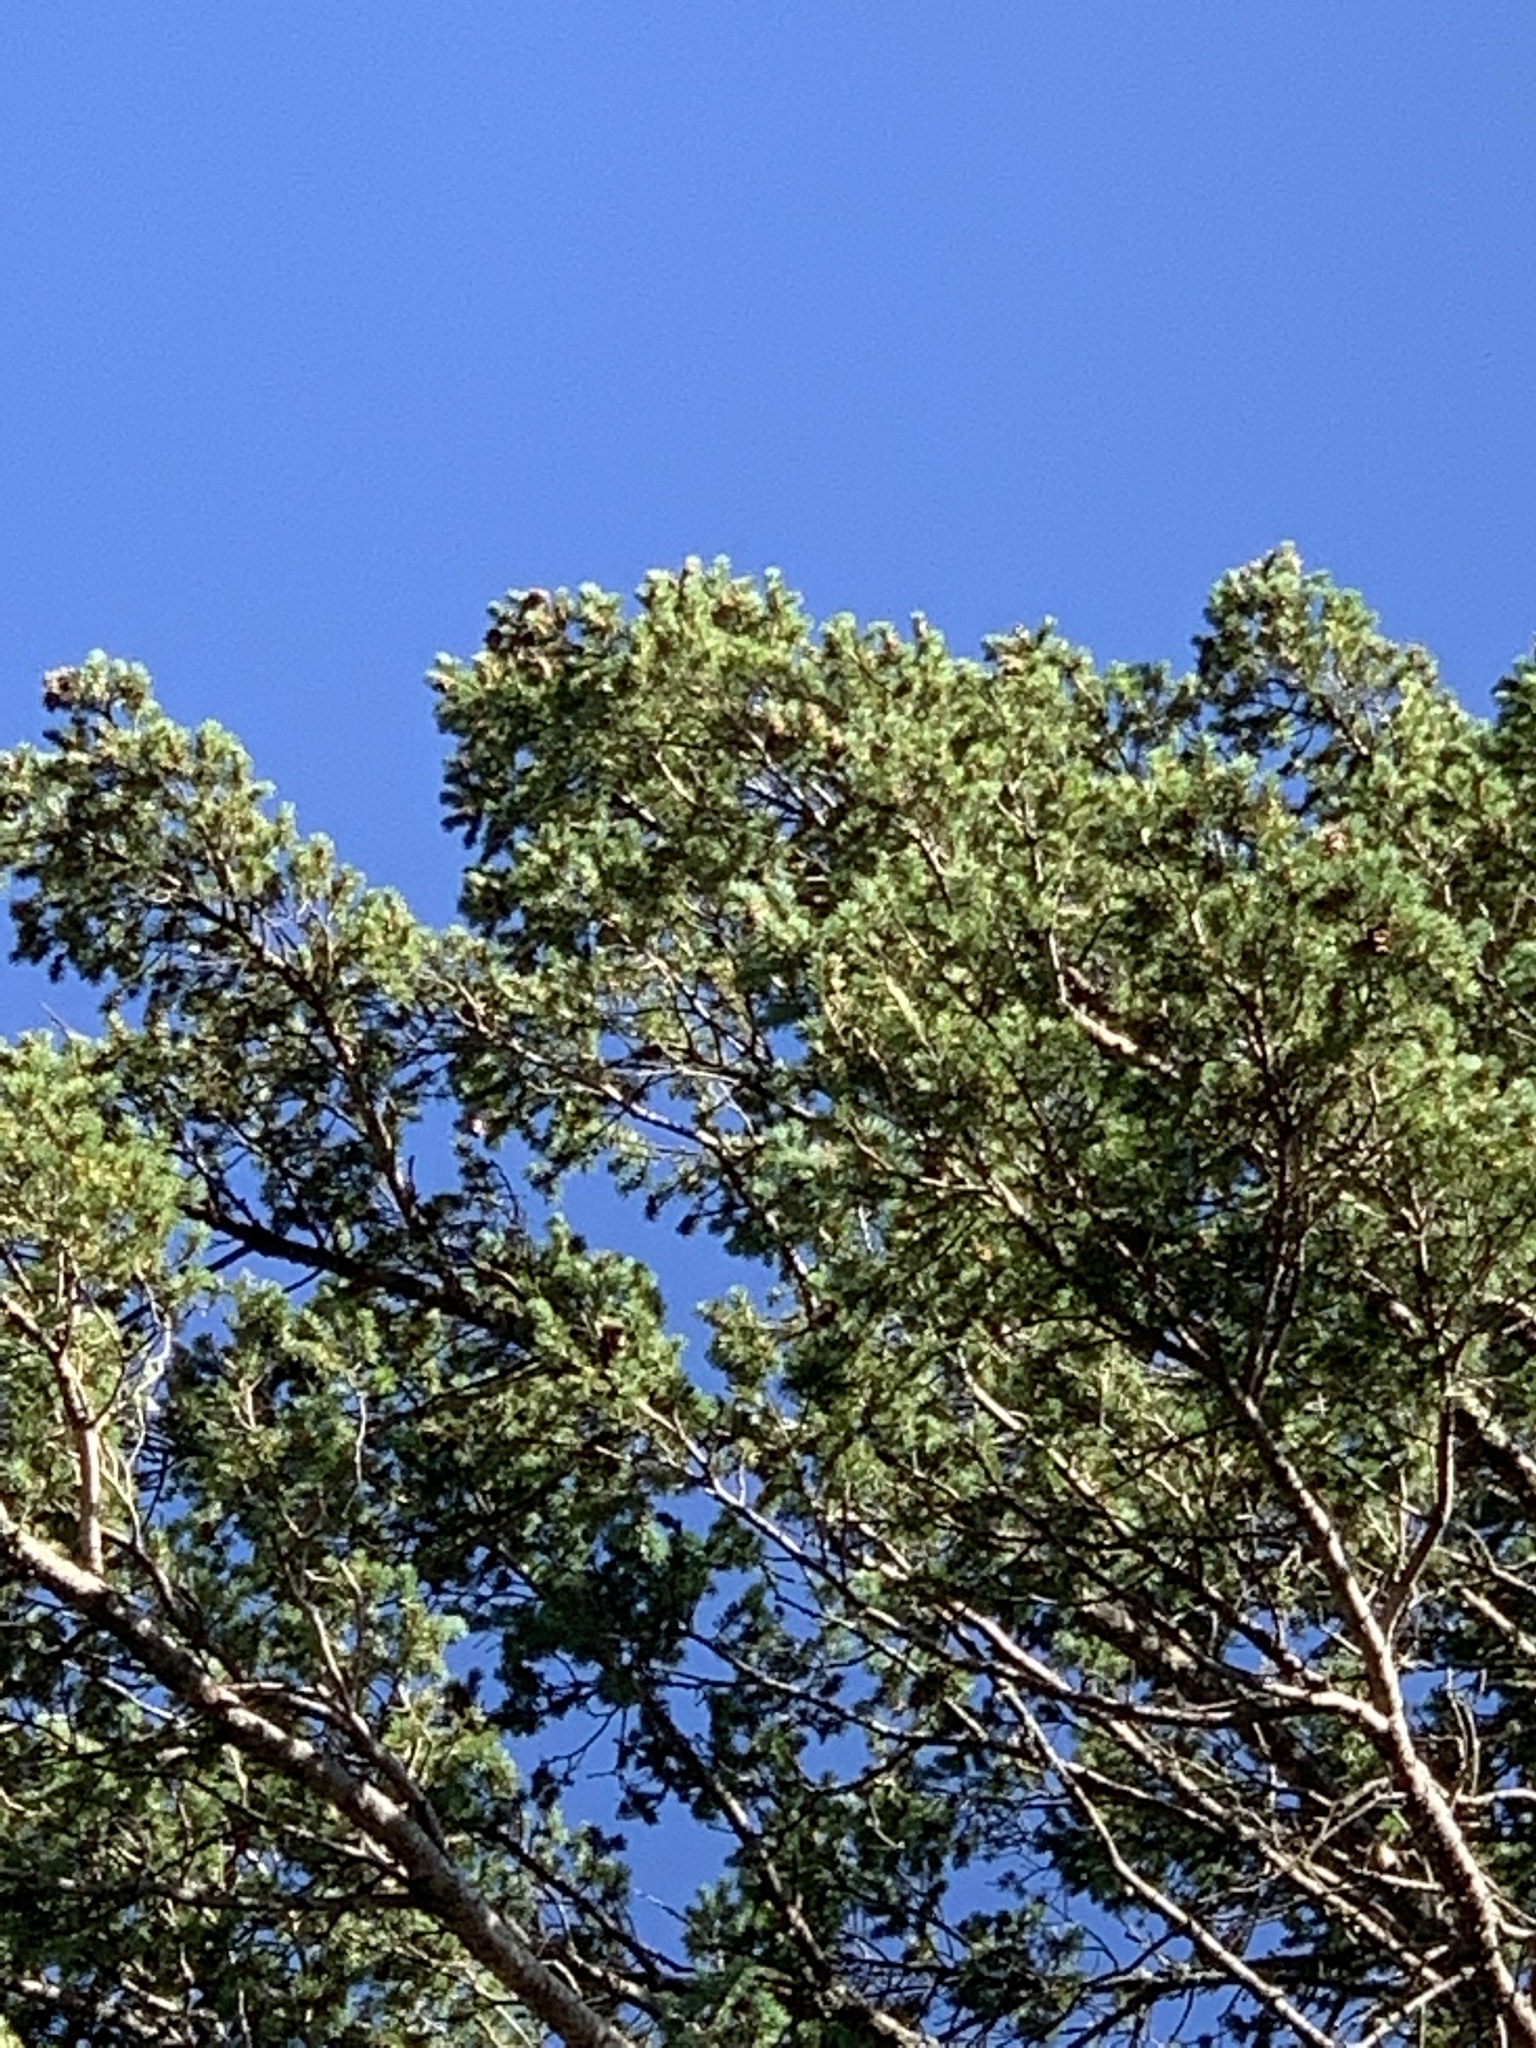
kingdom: Plantae
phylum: Tracheophyta
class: Pinopsida
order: Pinales
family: Pinaceae
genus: Pinus
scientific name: Pinus strobiformis
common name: Southwestern white pine
